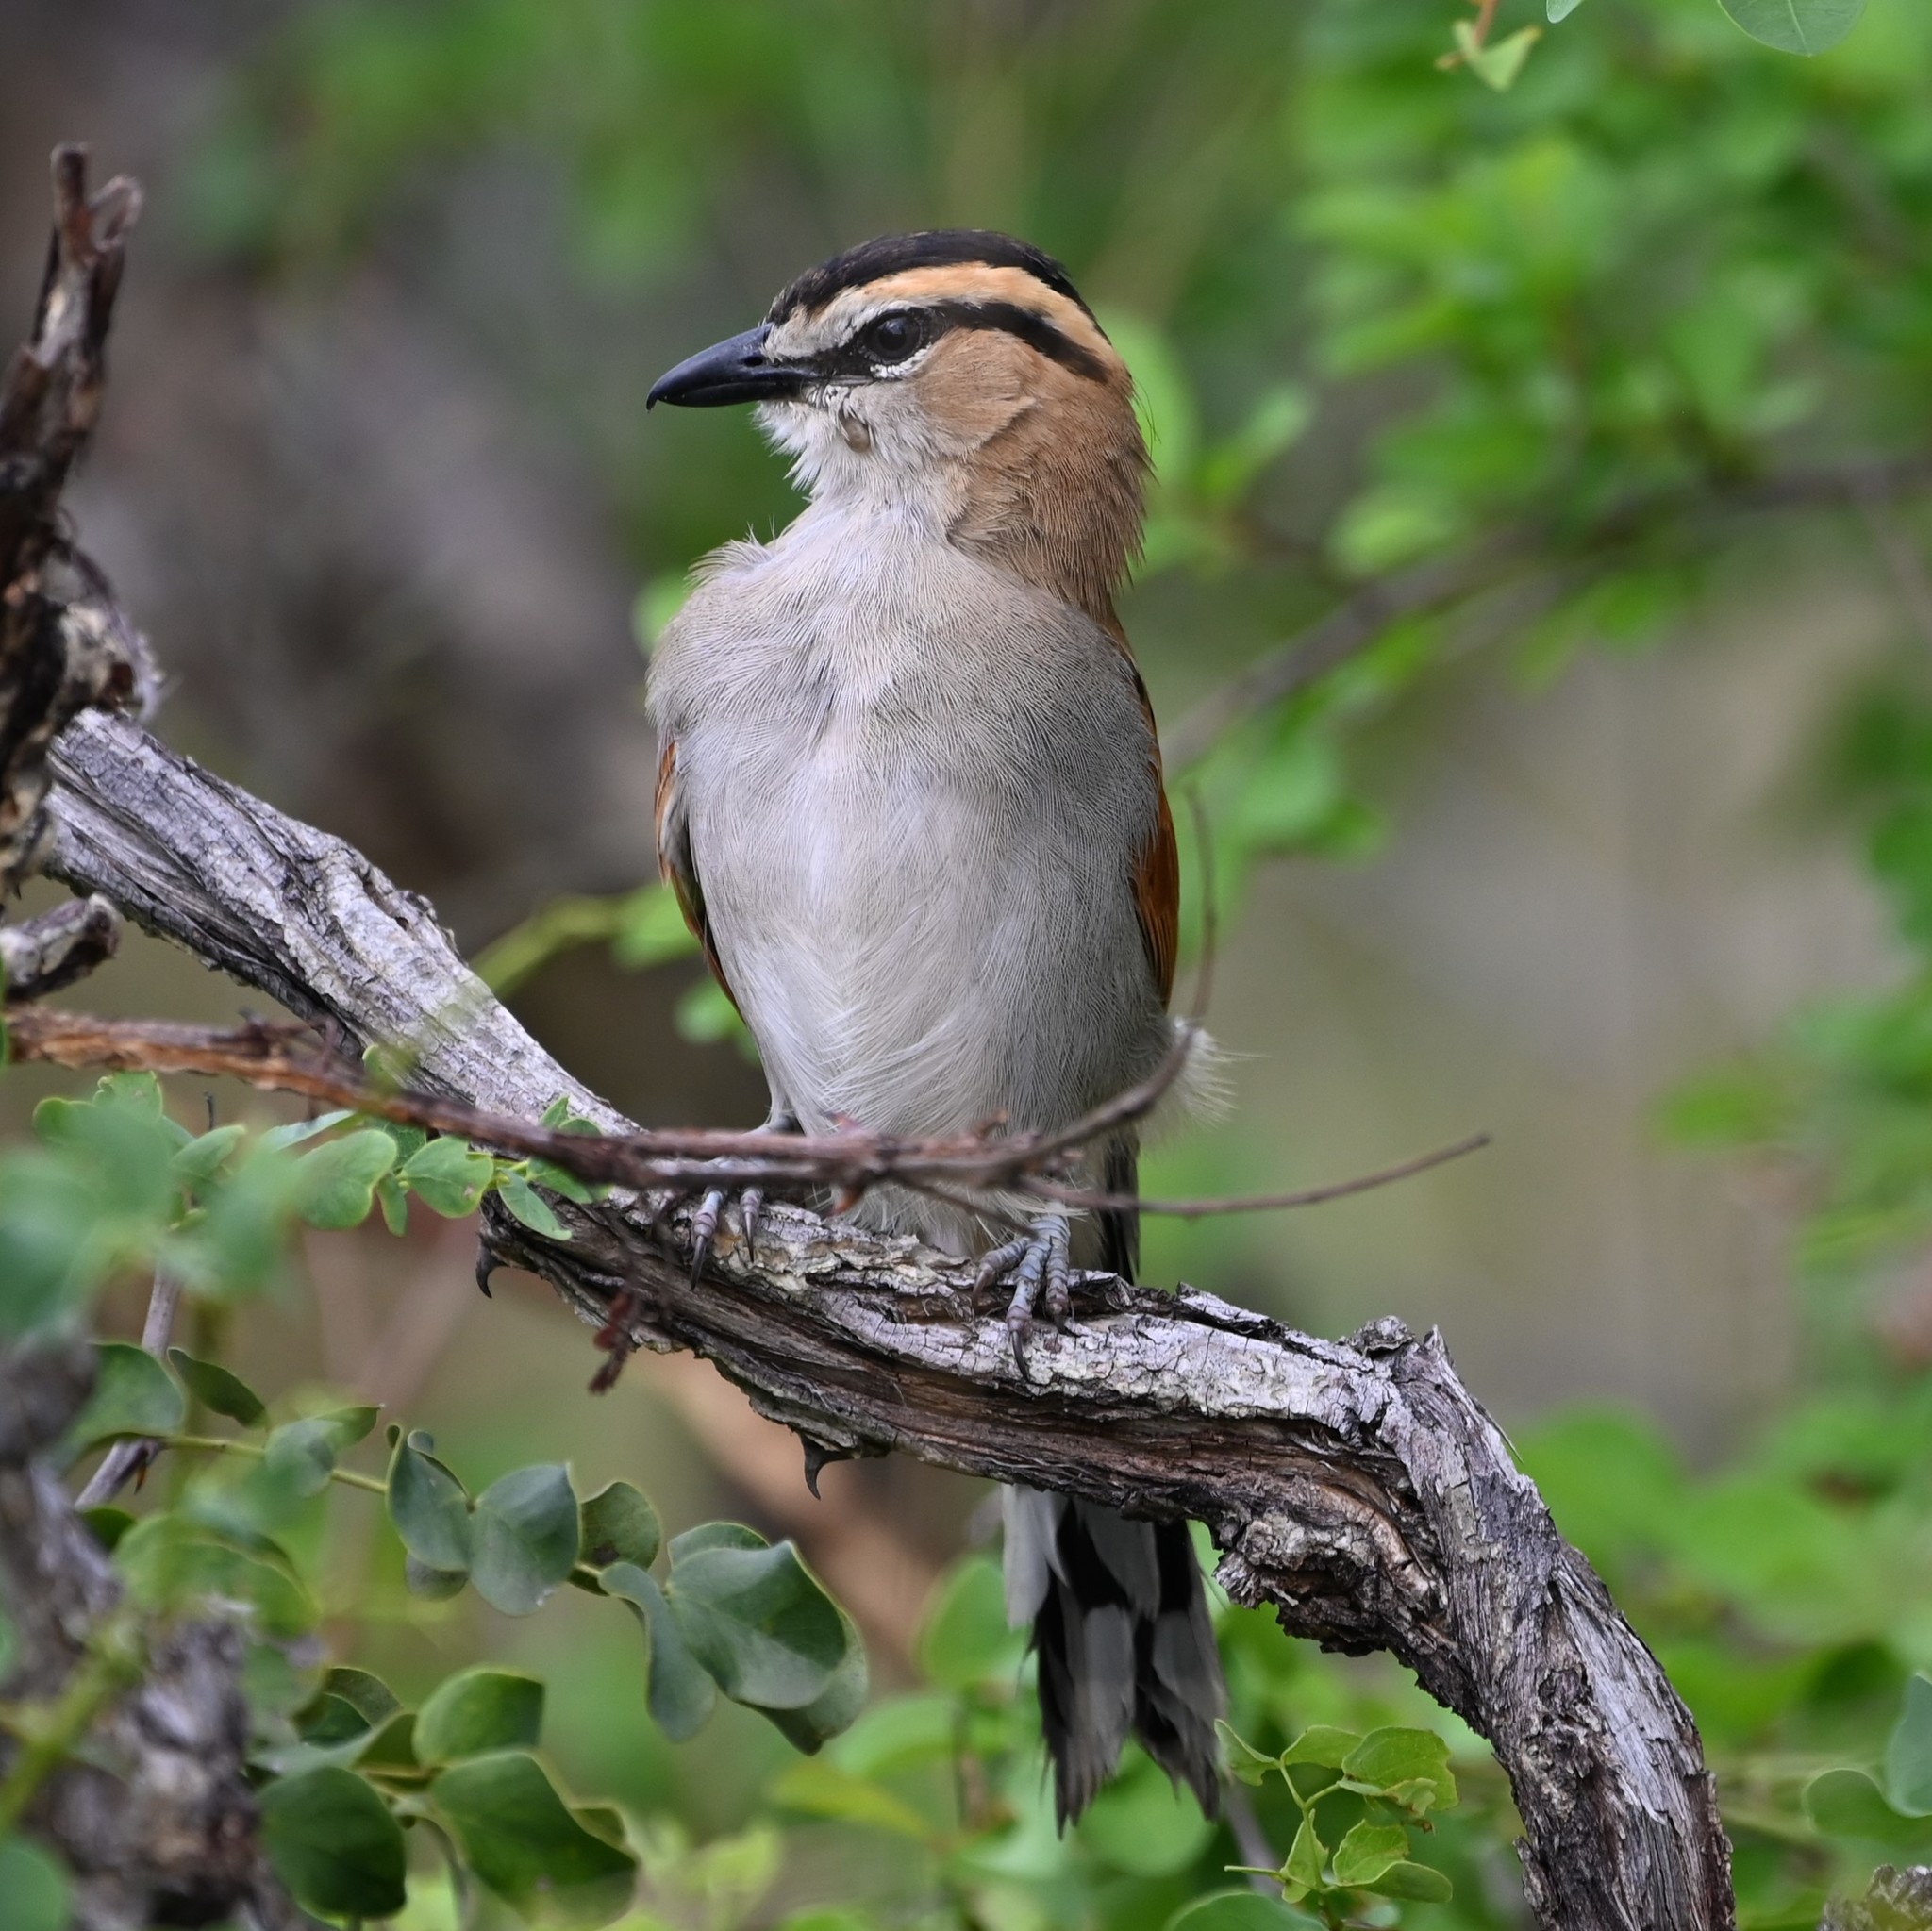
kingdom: Animalia
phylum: Chordata
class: Aves
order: Passeriformes
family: Malaconotidae
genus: Tchagra
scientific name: Tchagra senegalus
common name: Black-crowned tchagra
